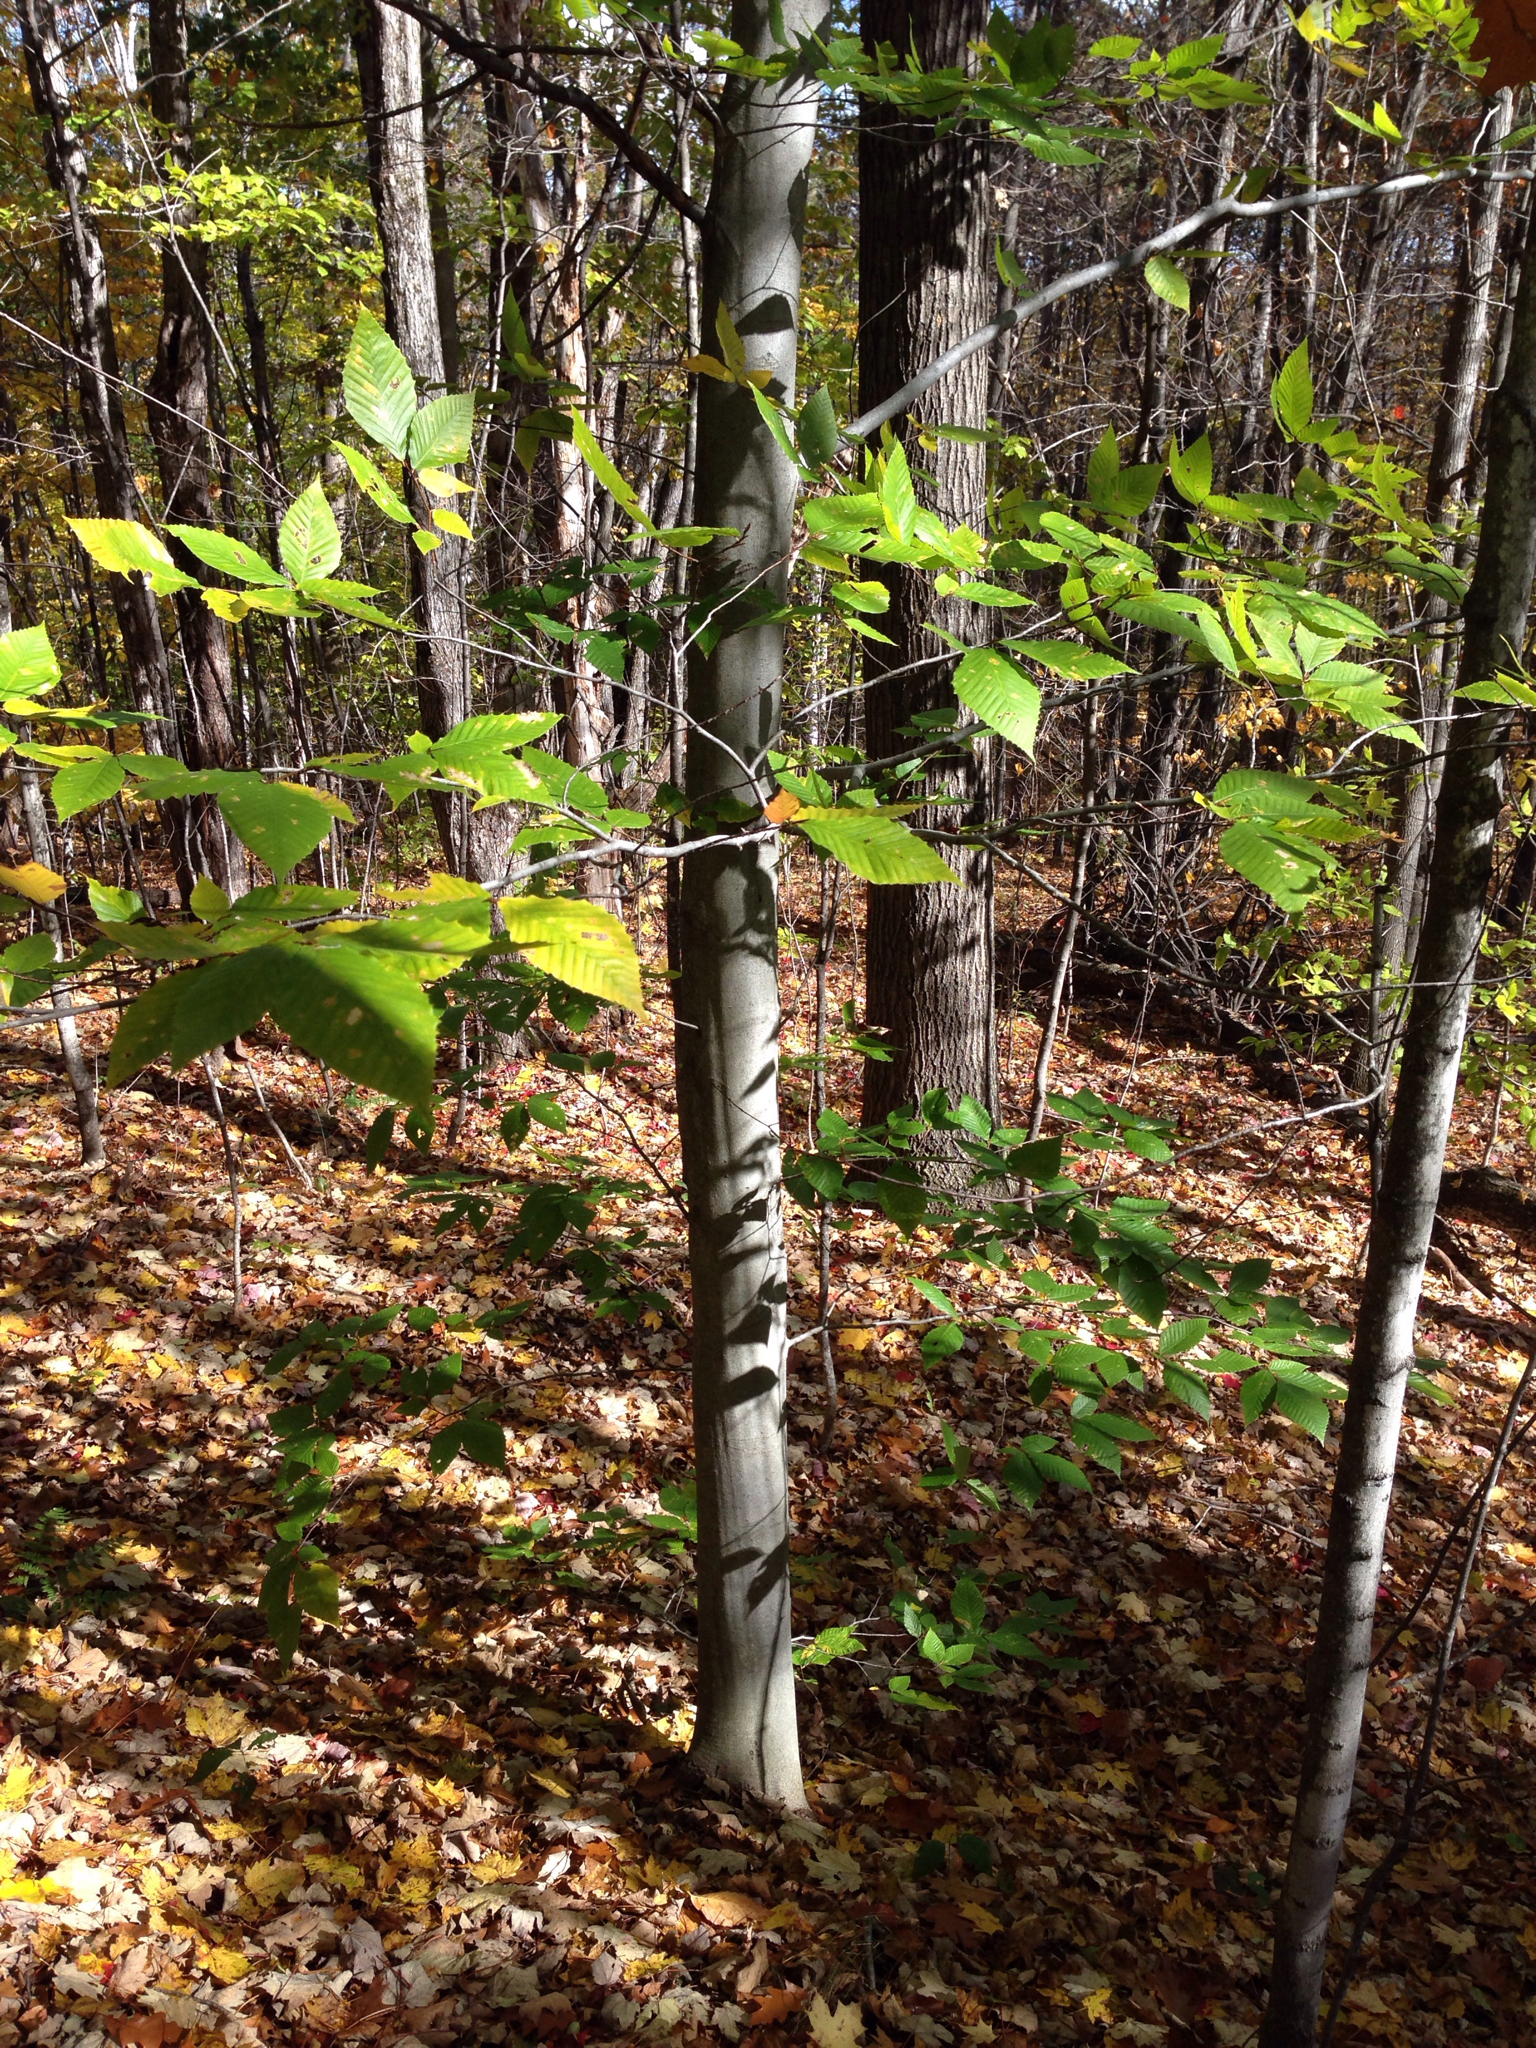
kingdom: Plantae
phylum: Tracheophyta
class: Magnoliopsida
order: Fagales
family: Fagaceae
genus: Fagus
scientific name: Fagus grandifolia
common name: American beech
